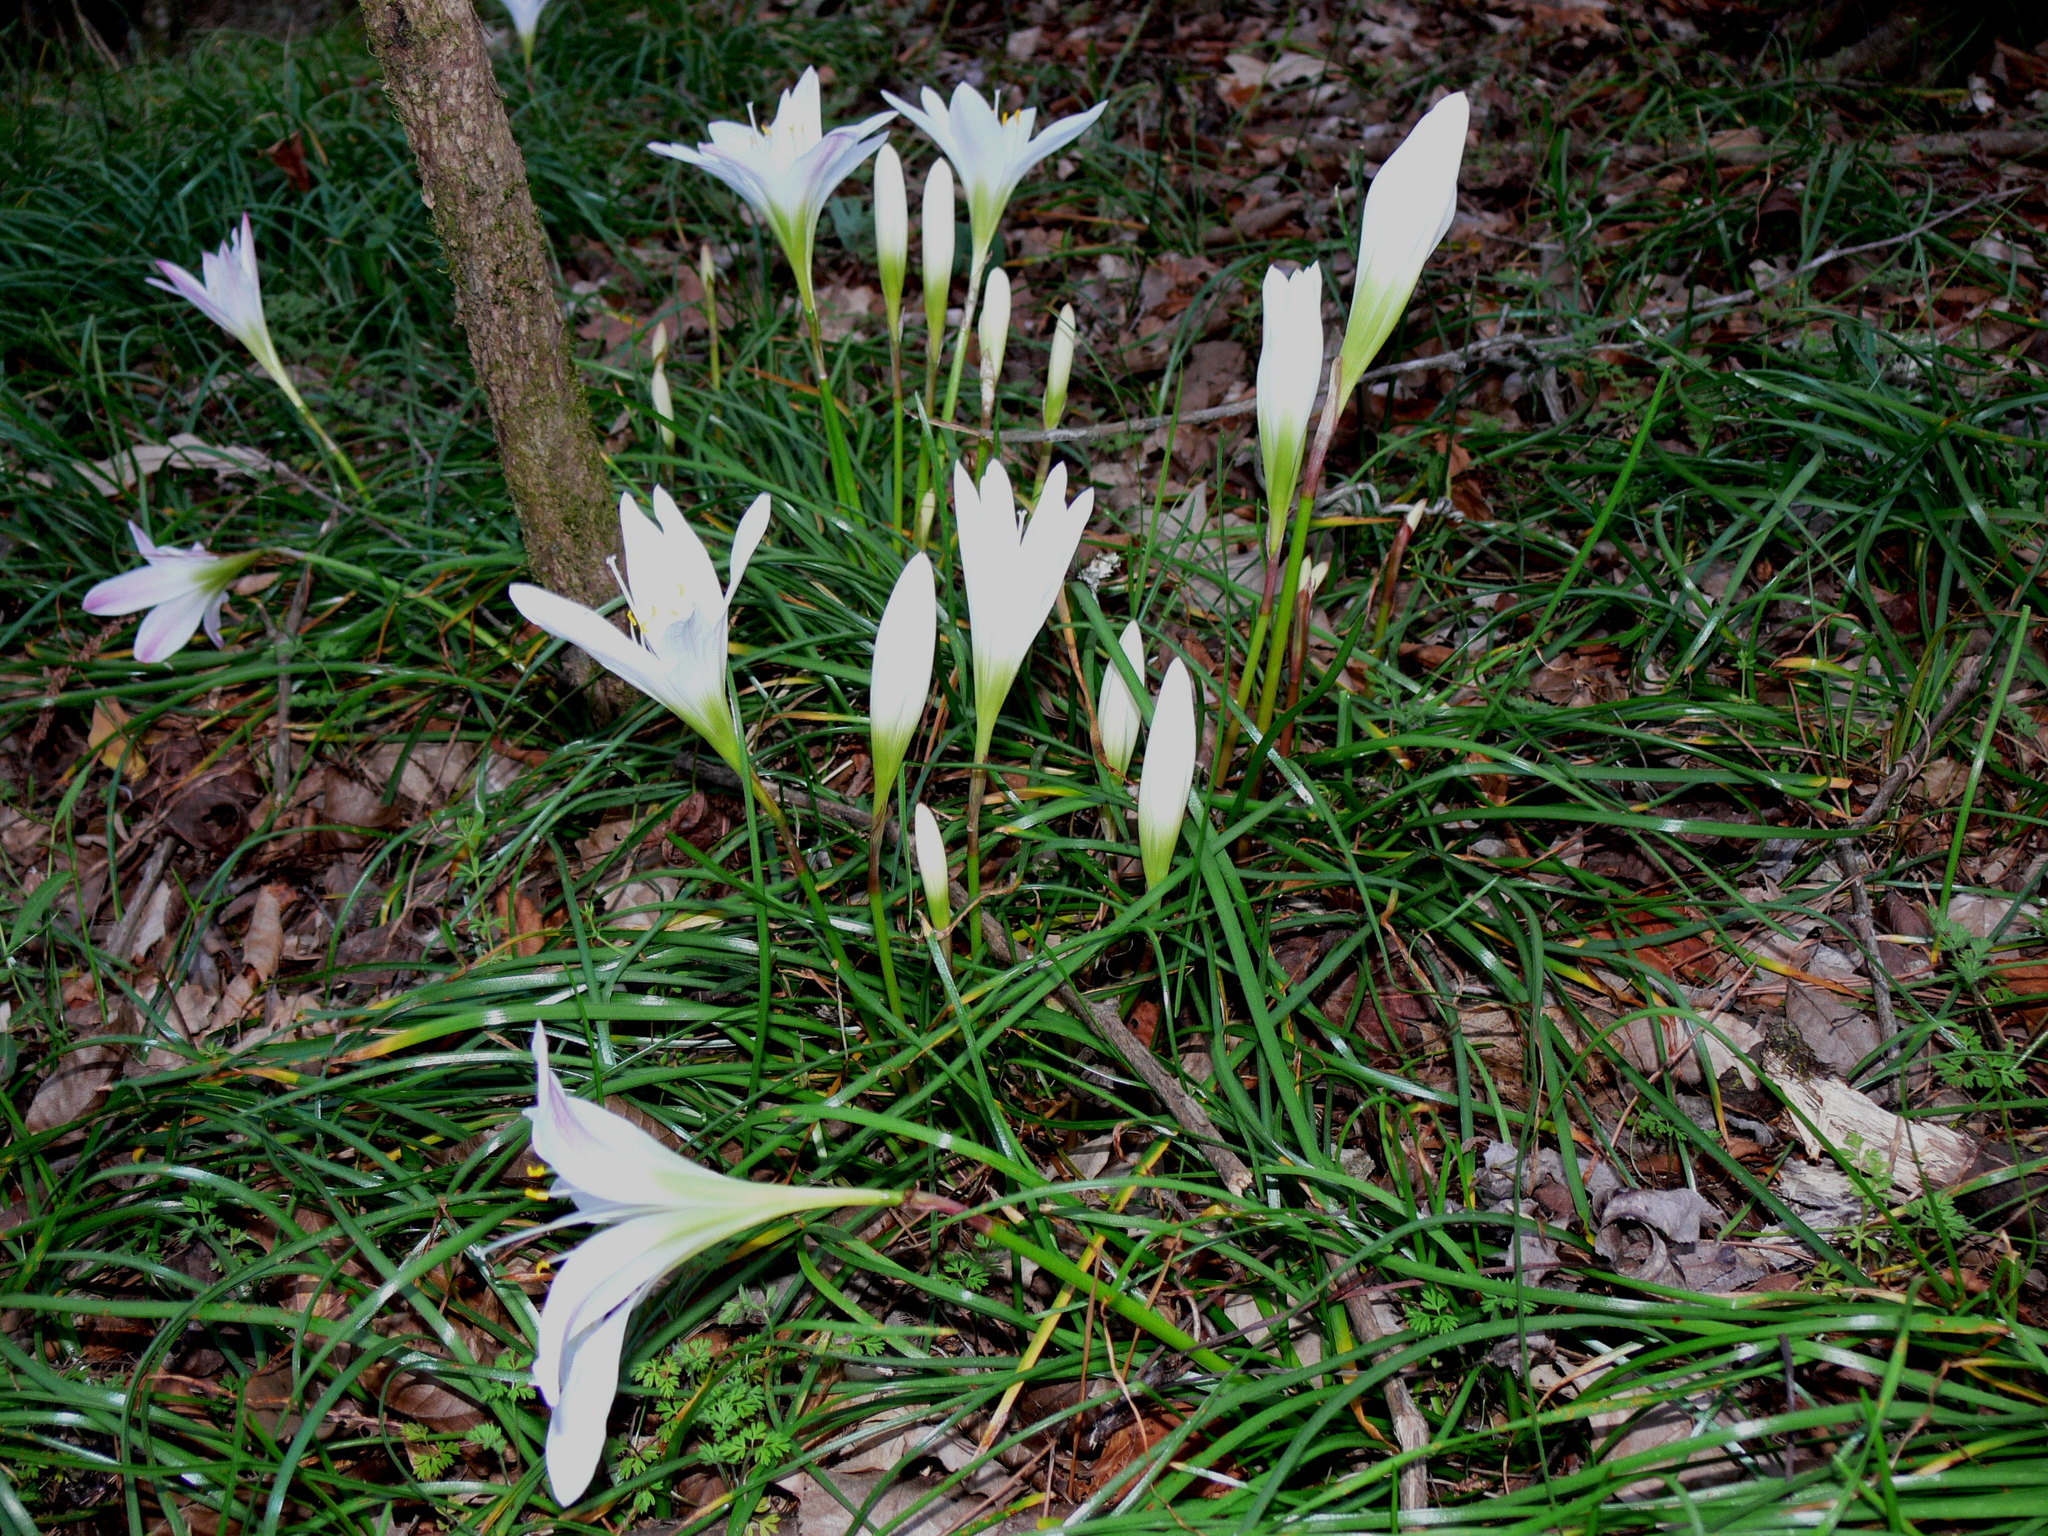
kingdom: Plantae
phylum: Tracheophyta
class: Liliopsida
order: Asparagales
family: Amaryllidaceae
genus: Zephyranthes
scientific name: Zephyranthes atamasco
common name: Atamasco lily
